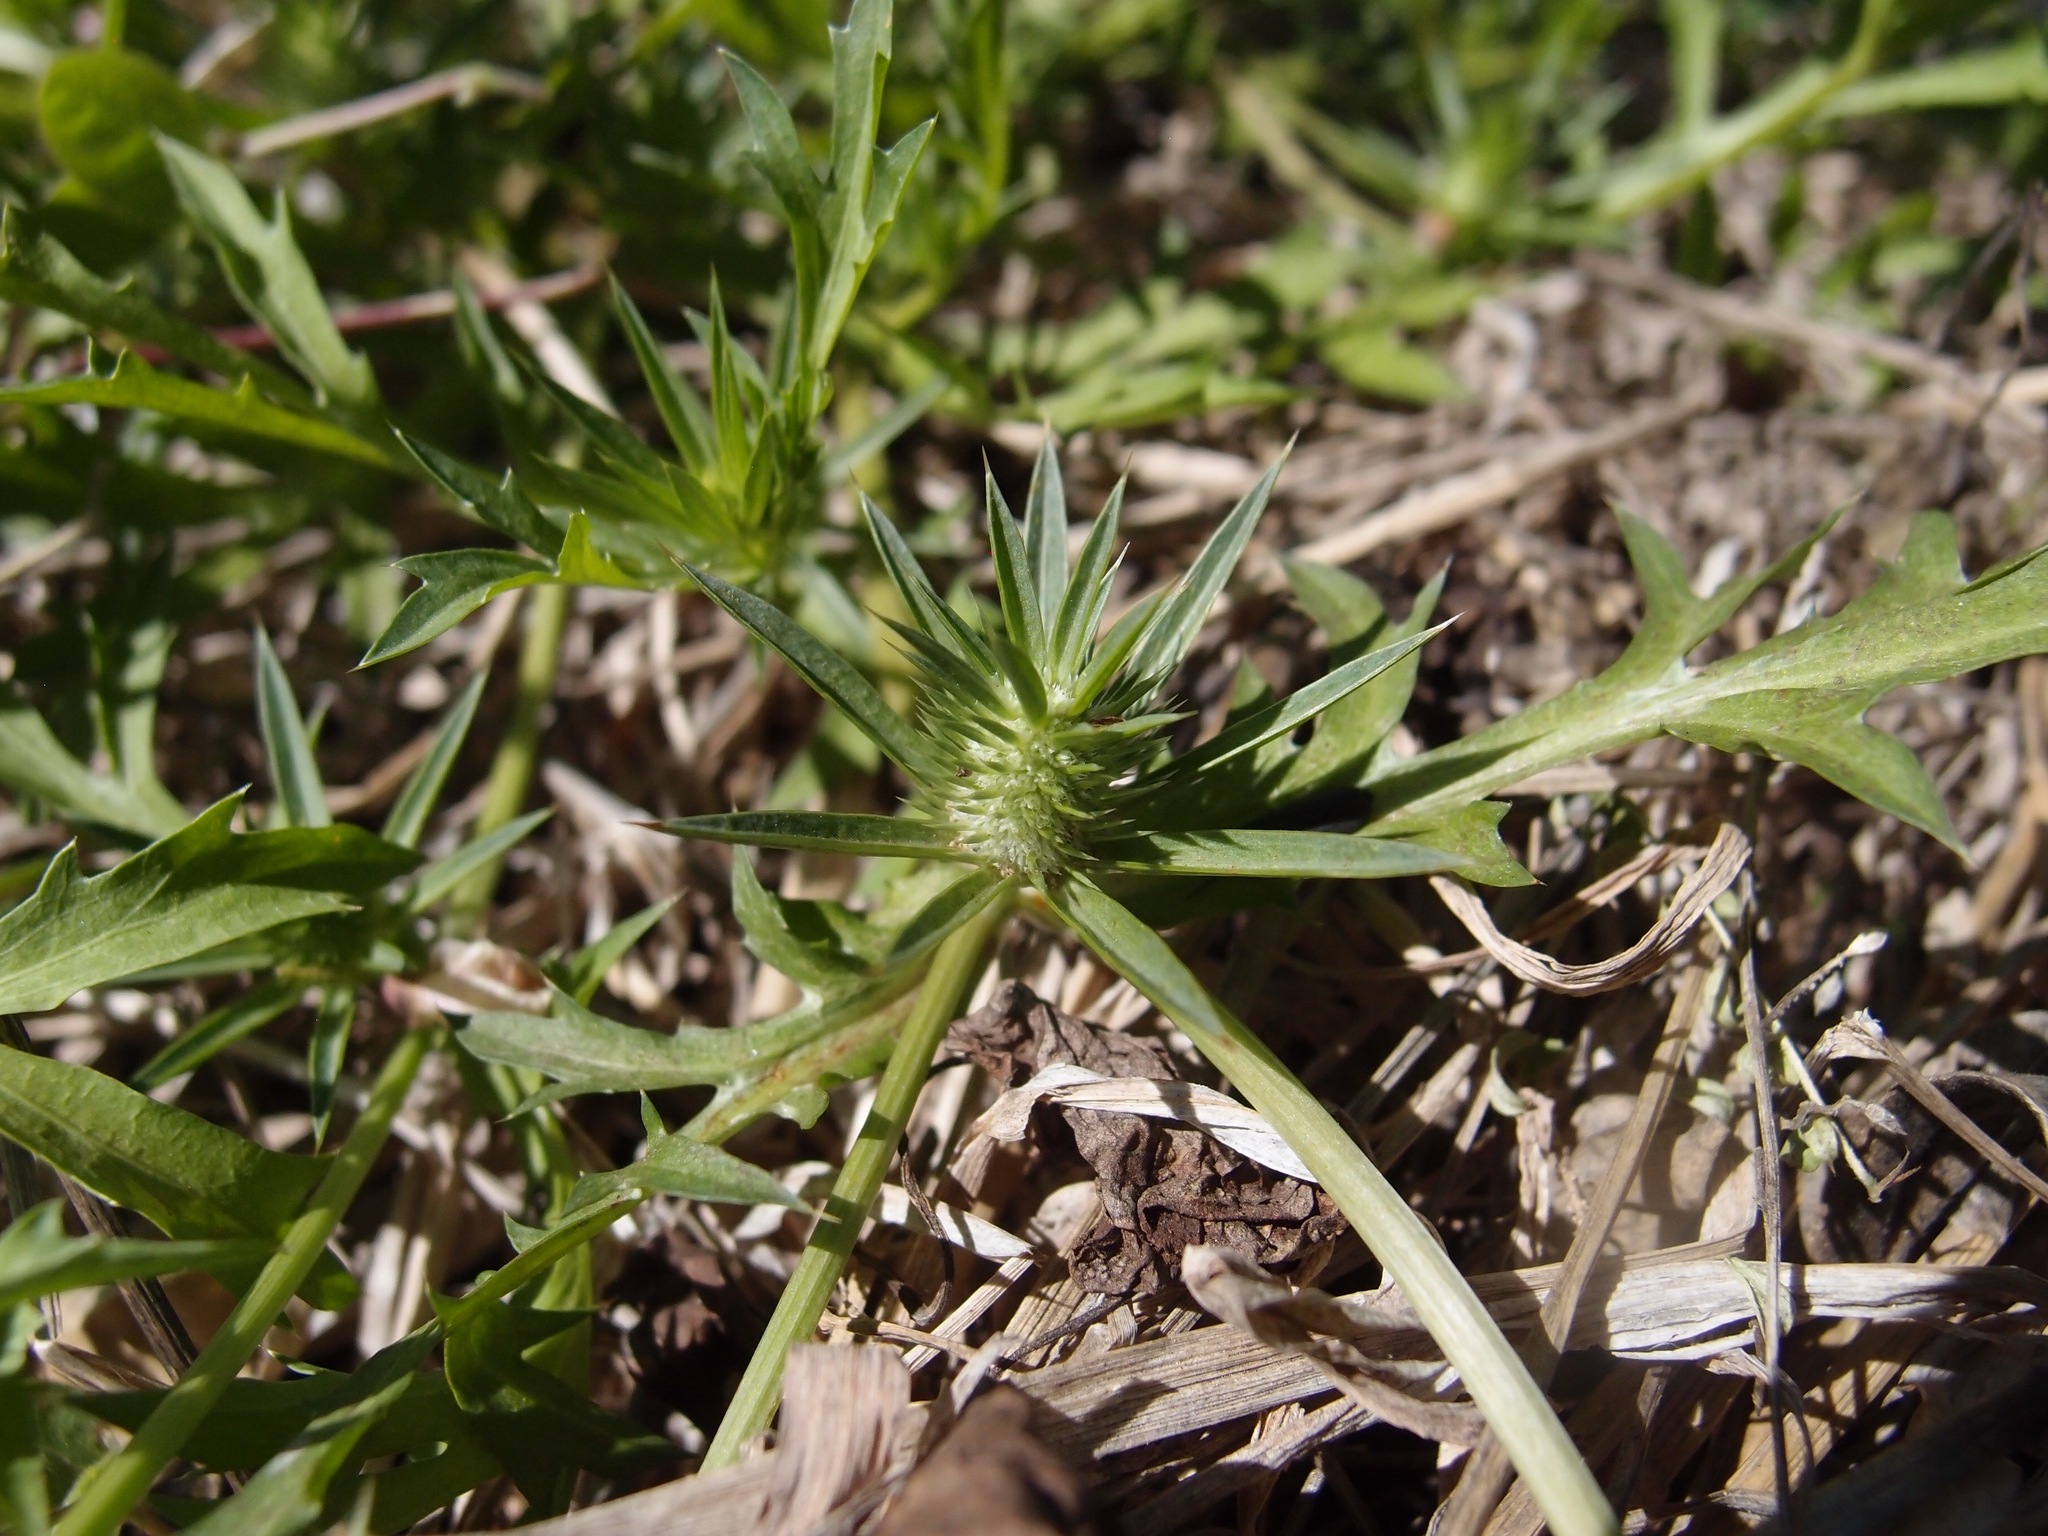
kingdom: Plantae
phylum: Tracheophyta
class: Magnoliopsida
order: Apiales
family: Apiaceae
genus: Eryngium
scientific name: Eryngium nasturtiifolium
